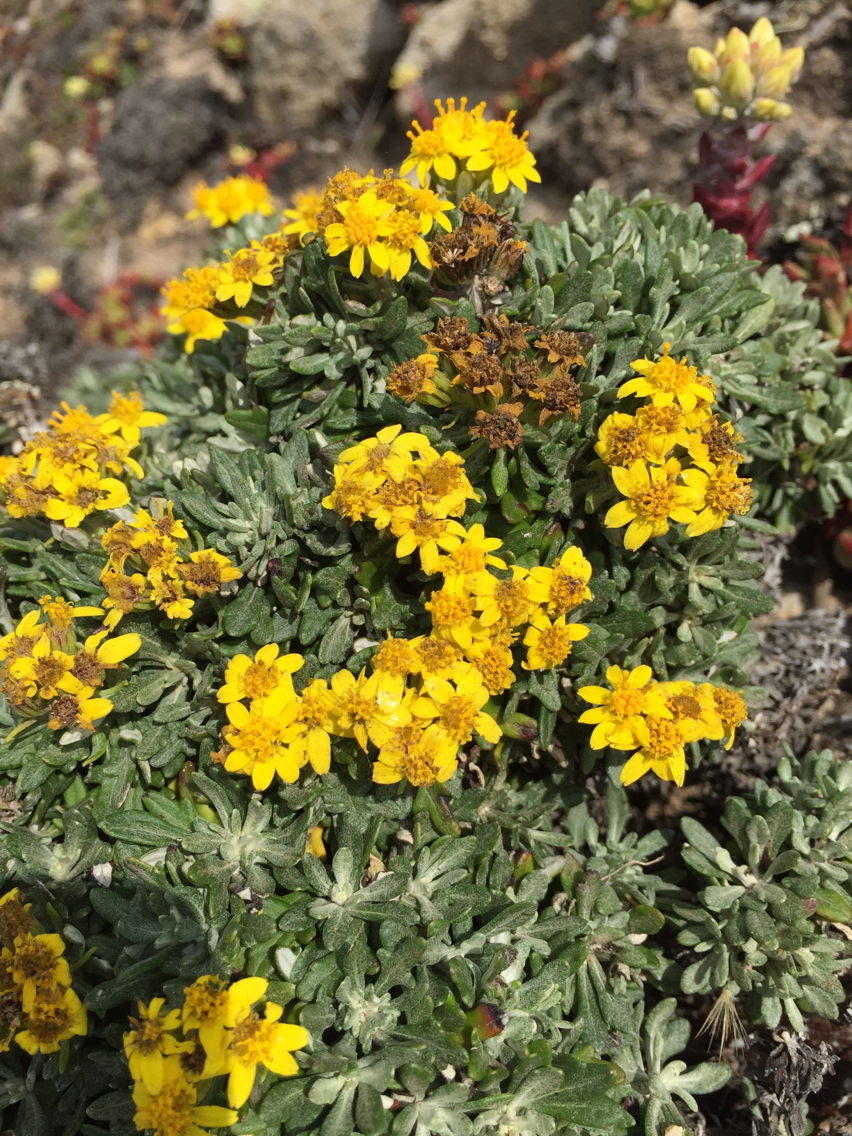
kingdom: Plantae
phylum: Tracheophyta
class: Magnoliopsida
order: Asterales
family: Asteraceae
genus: Eriophyllum
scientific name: Eriophyllum staechadifolium
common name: Lizardtail
